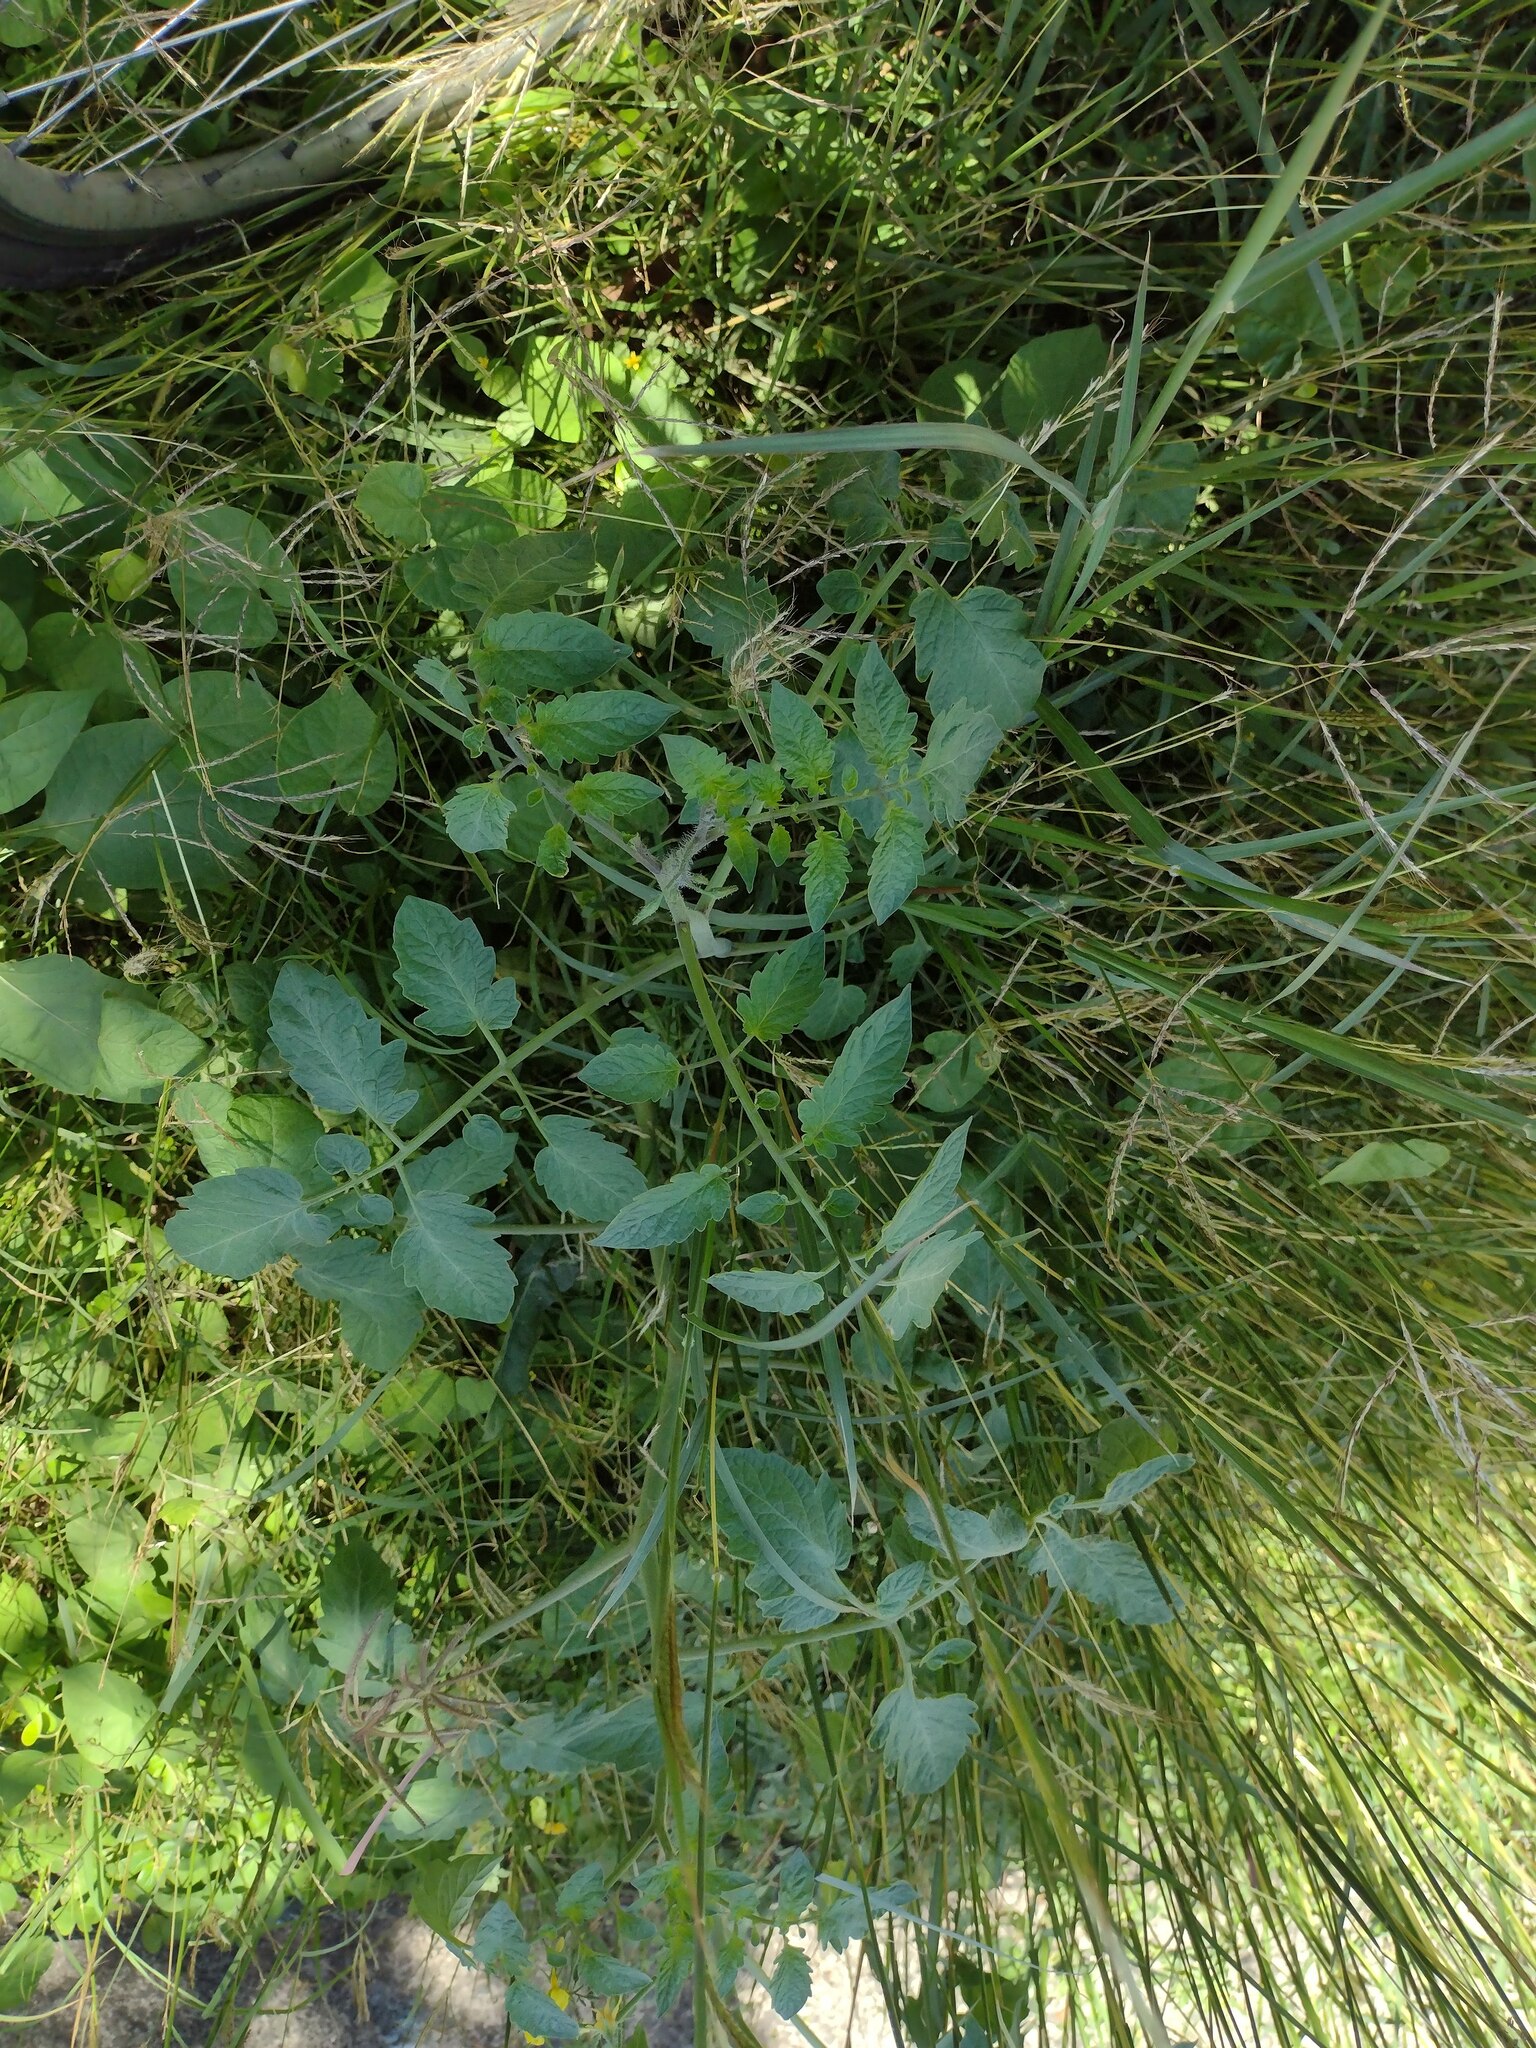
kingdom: Plantae
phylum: Tracheophyta
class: Magnoliopsida
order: Solanales
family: Solanaceae
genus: Solanum
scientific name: Solanum lycopersicum
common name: Garden tomato
